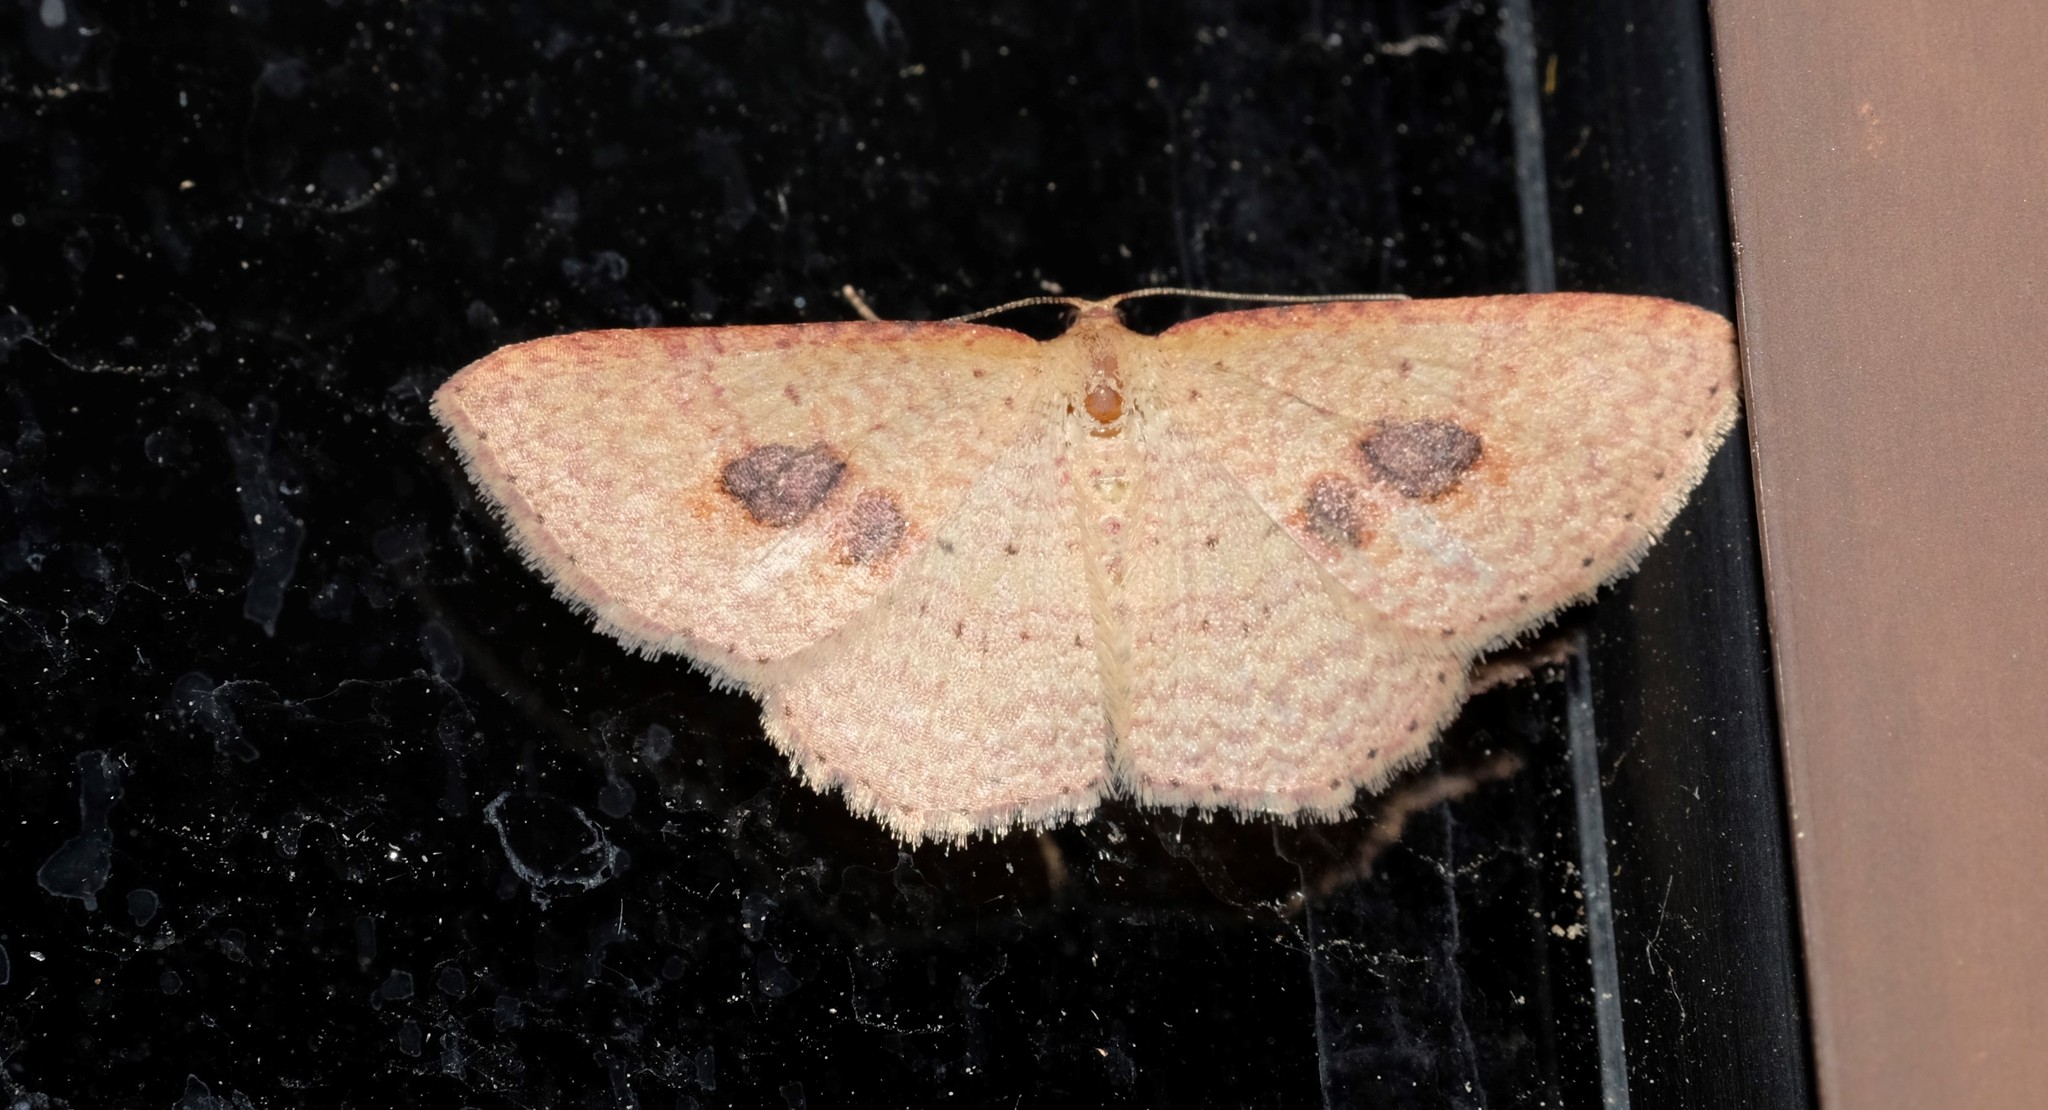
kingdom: Animalia
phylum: Arthropoda
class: Insecta
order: Lepidoptera
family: Geometridae
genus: Epicyme
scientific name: Epicyme rubropunctaria
